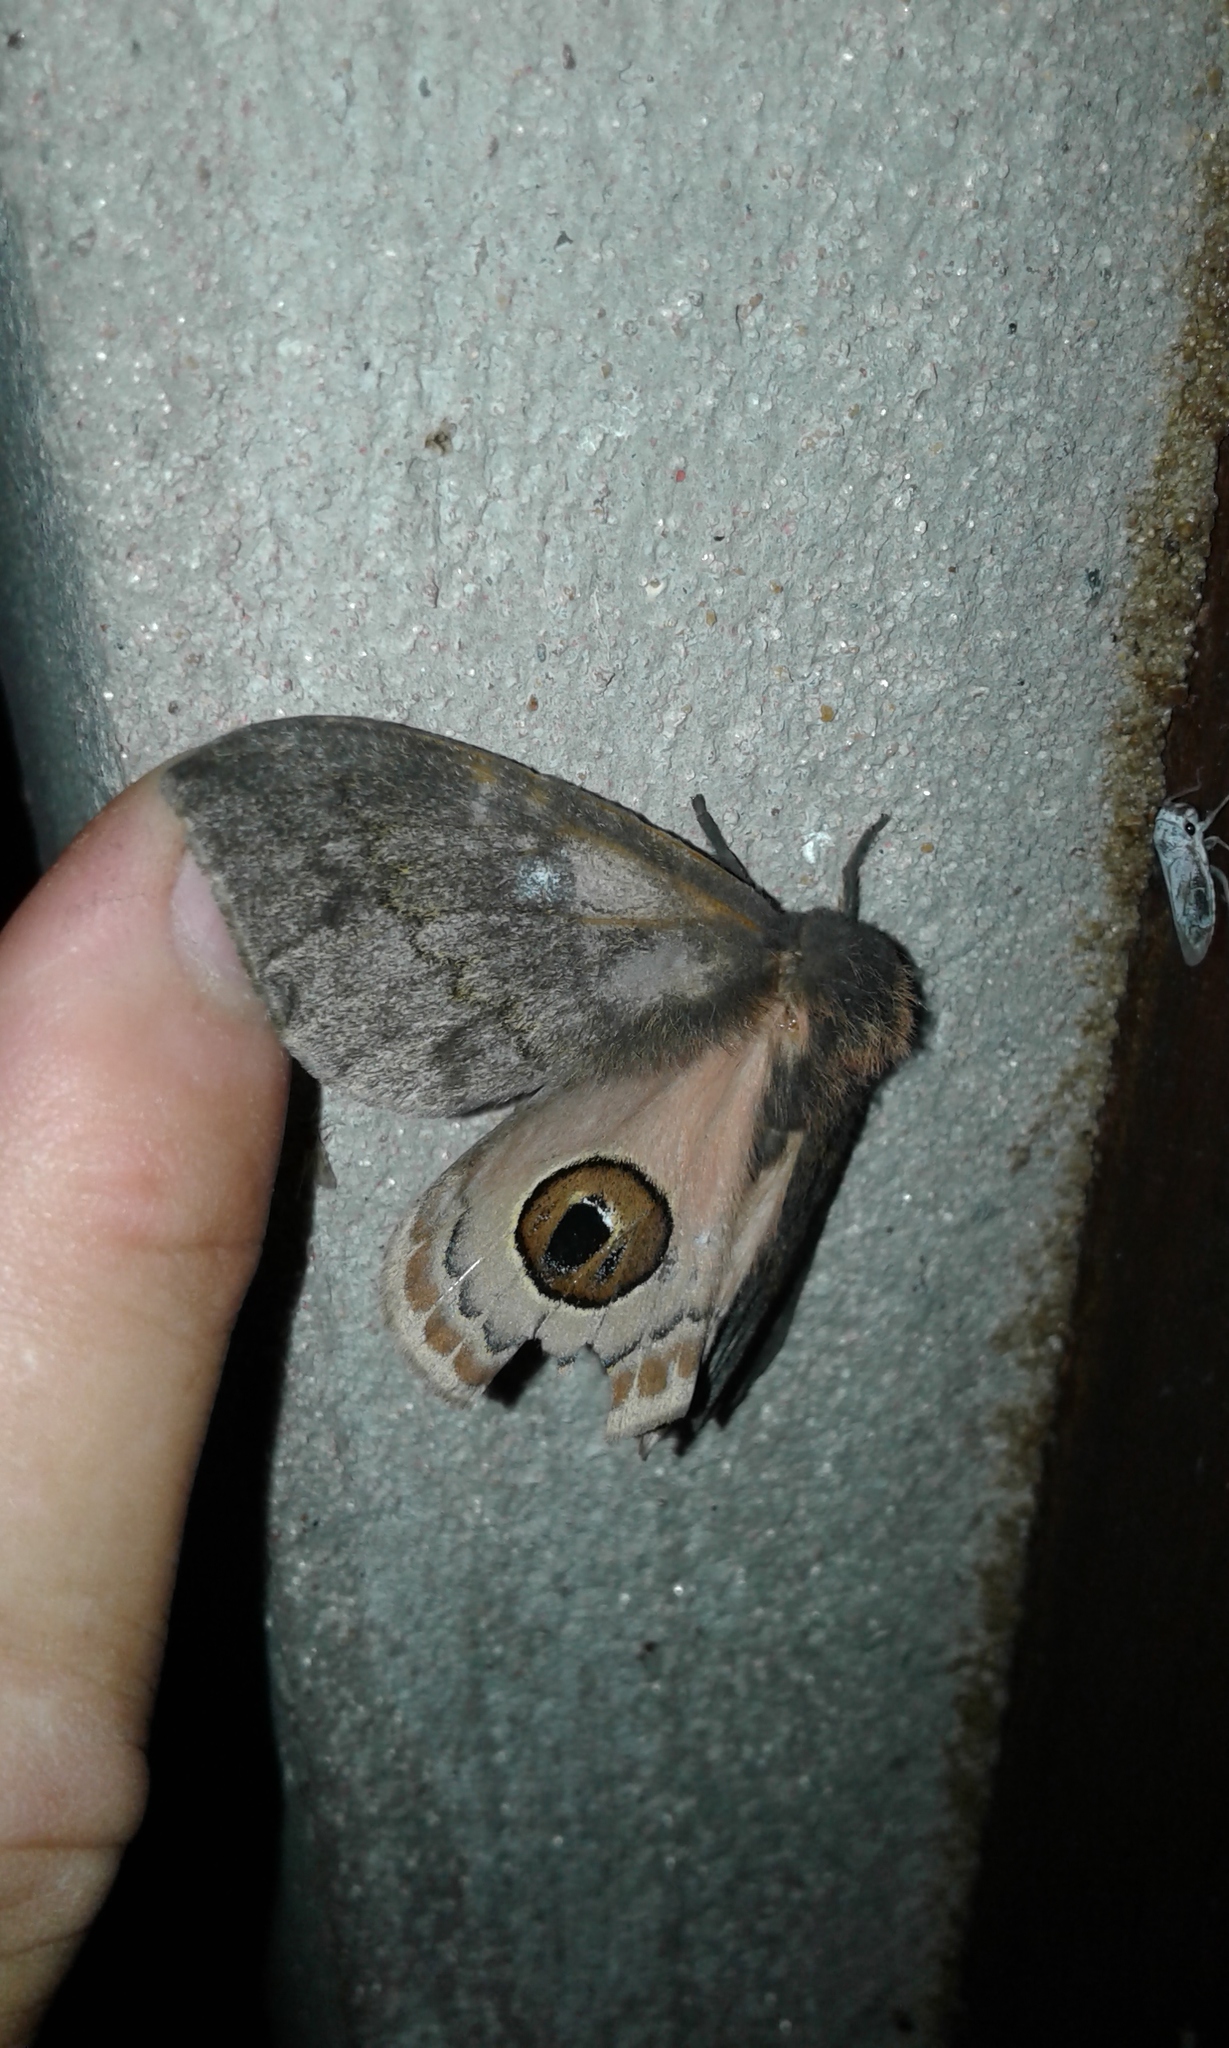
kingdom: Animalia
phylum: Arthropoda
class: Insecta
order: Lepidoptera
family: Saturniidae
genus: Leucanella
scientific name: Leucanella aspera
